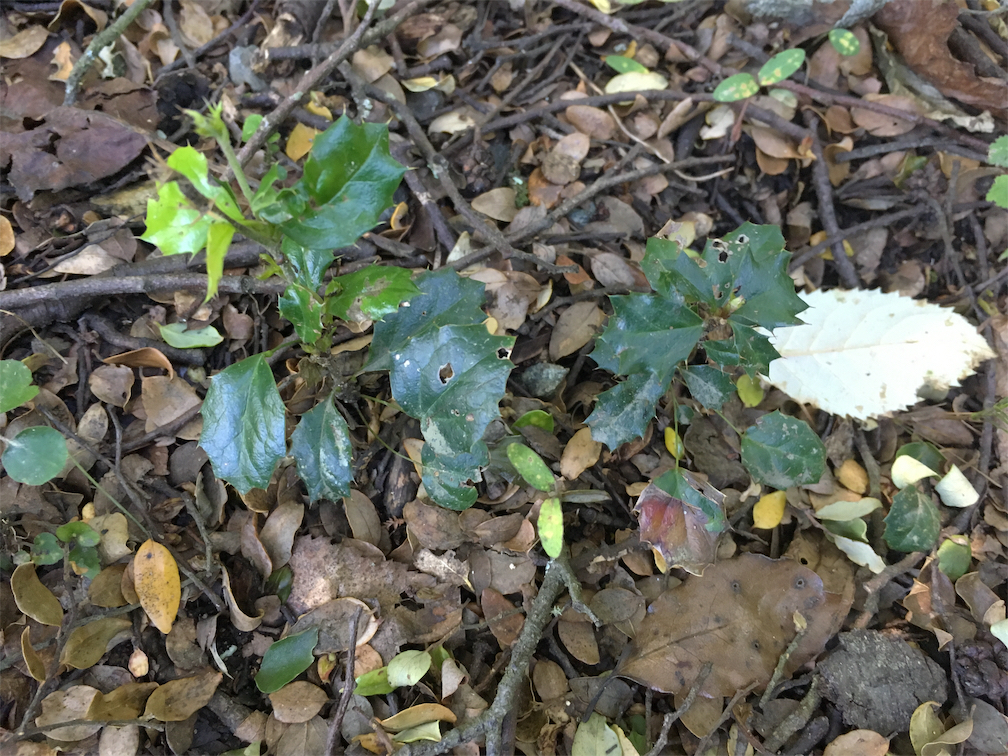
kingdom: Plantae
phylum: Tracheophyta
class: Magnoliopsida
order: Ranunculales
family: Berberidaceae
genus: Berberis
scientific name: Berberis darwinii
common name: Darwin's barberry
